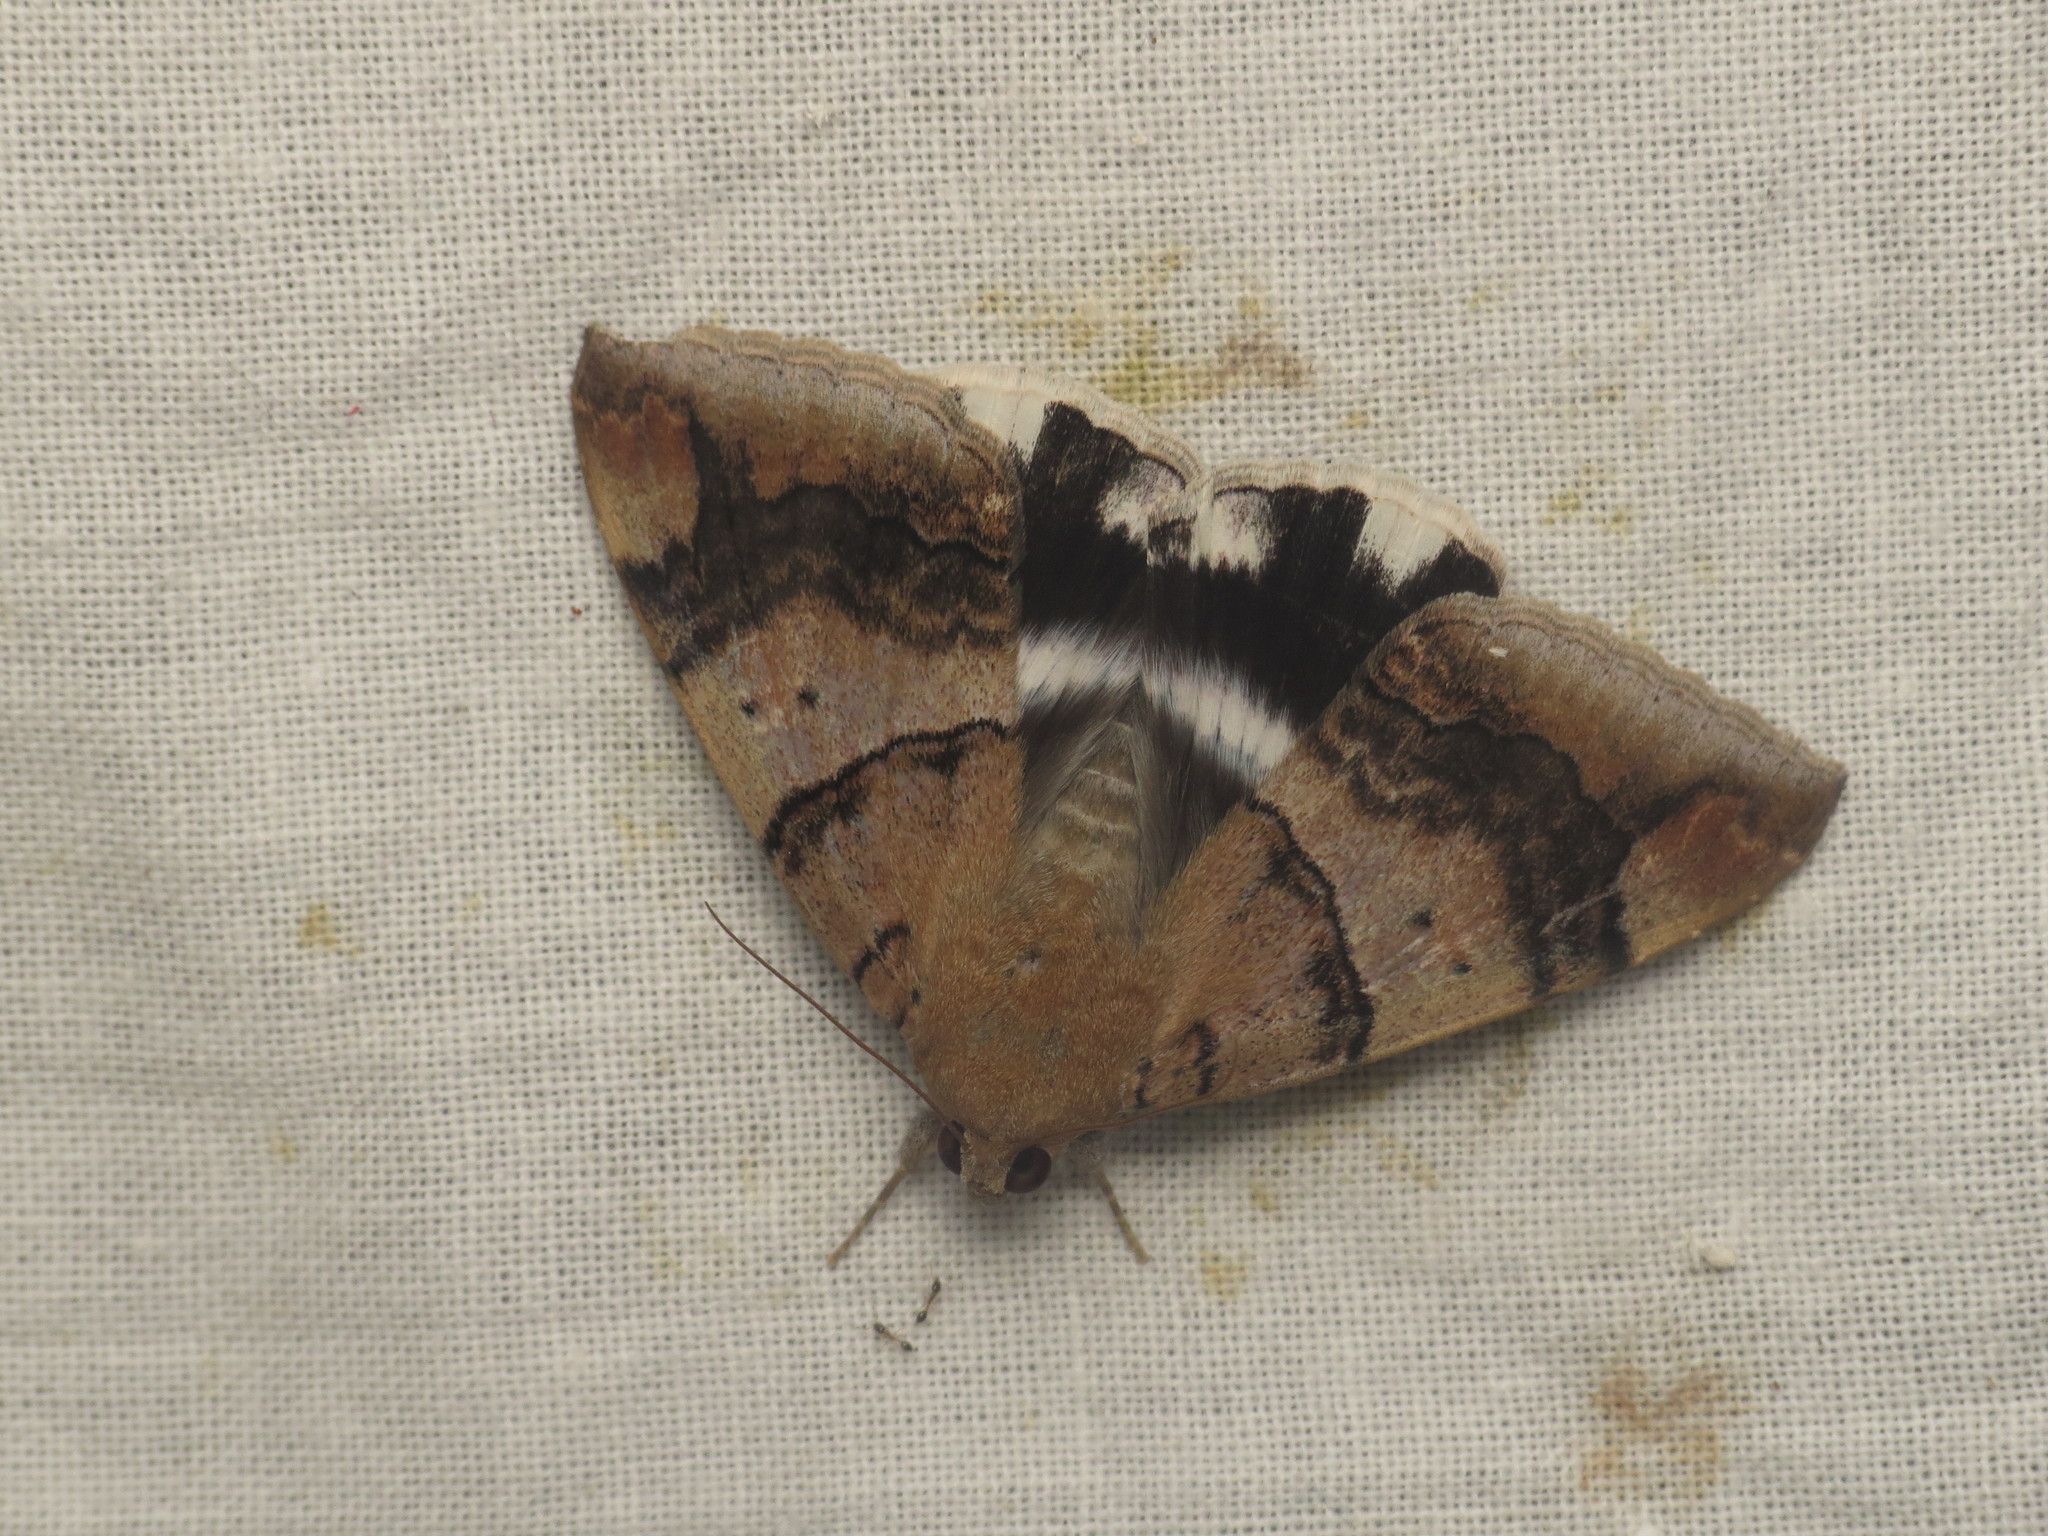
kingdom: Animalia
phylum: Arthropoda
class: Insecta
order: Lepidoptera
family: Erebidae
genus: Achaea
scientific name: Achaea janata
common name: Croton caterpillar
